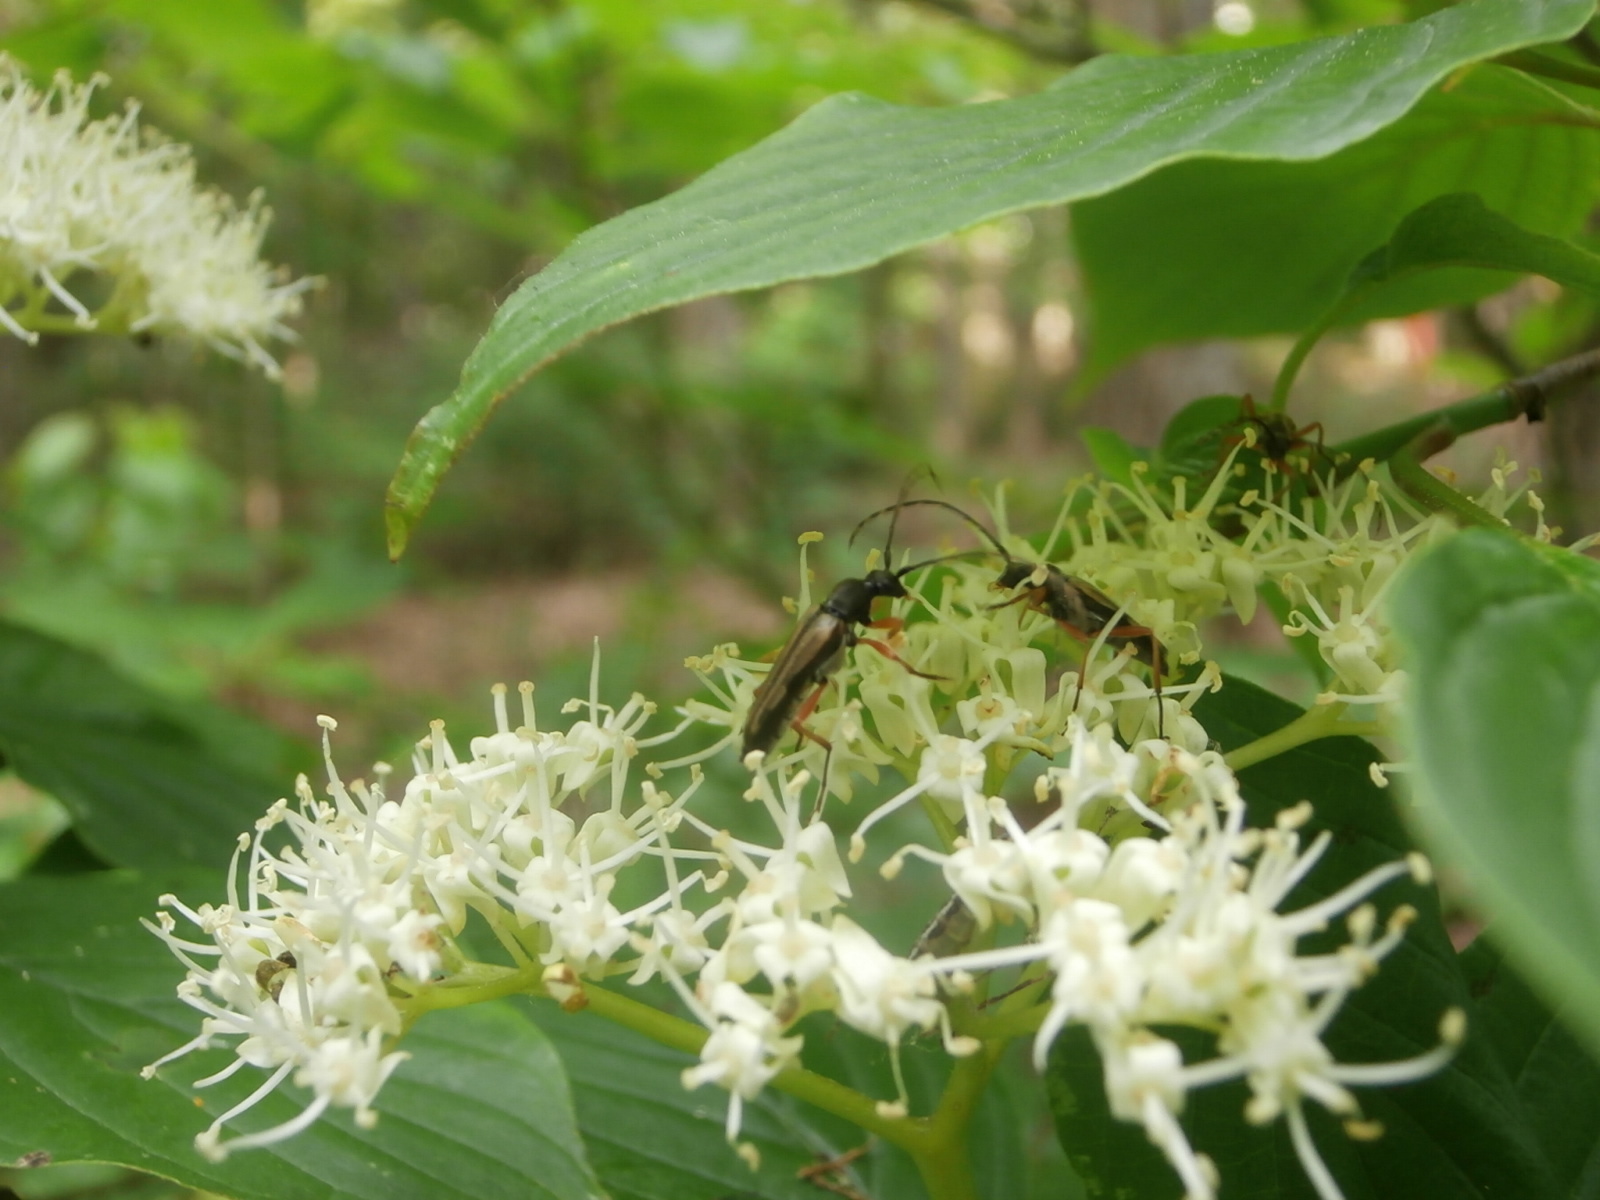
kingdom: Animalia
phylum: Arthropoda
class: Insecta
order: Coleoptera
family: Cerambycidae
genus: Analeptura
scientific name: Analeptura lineola
